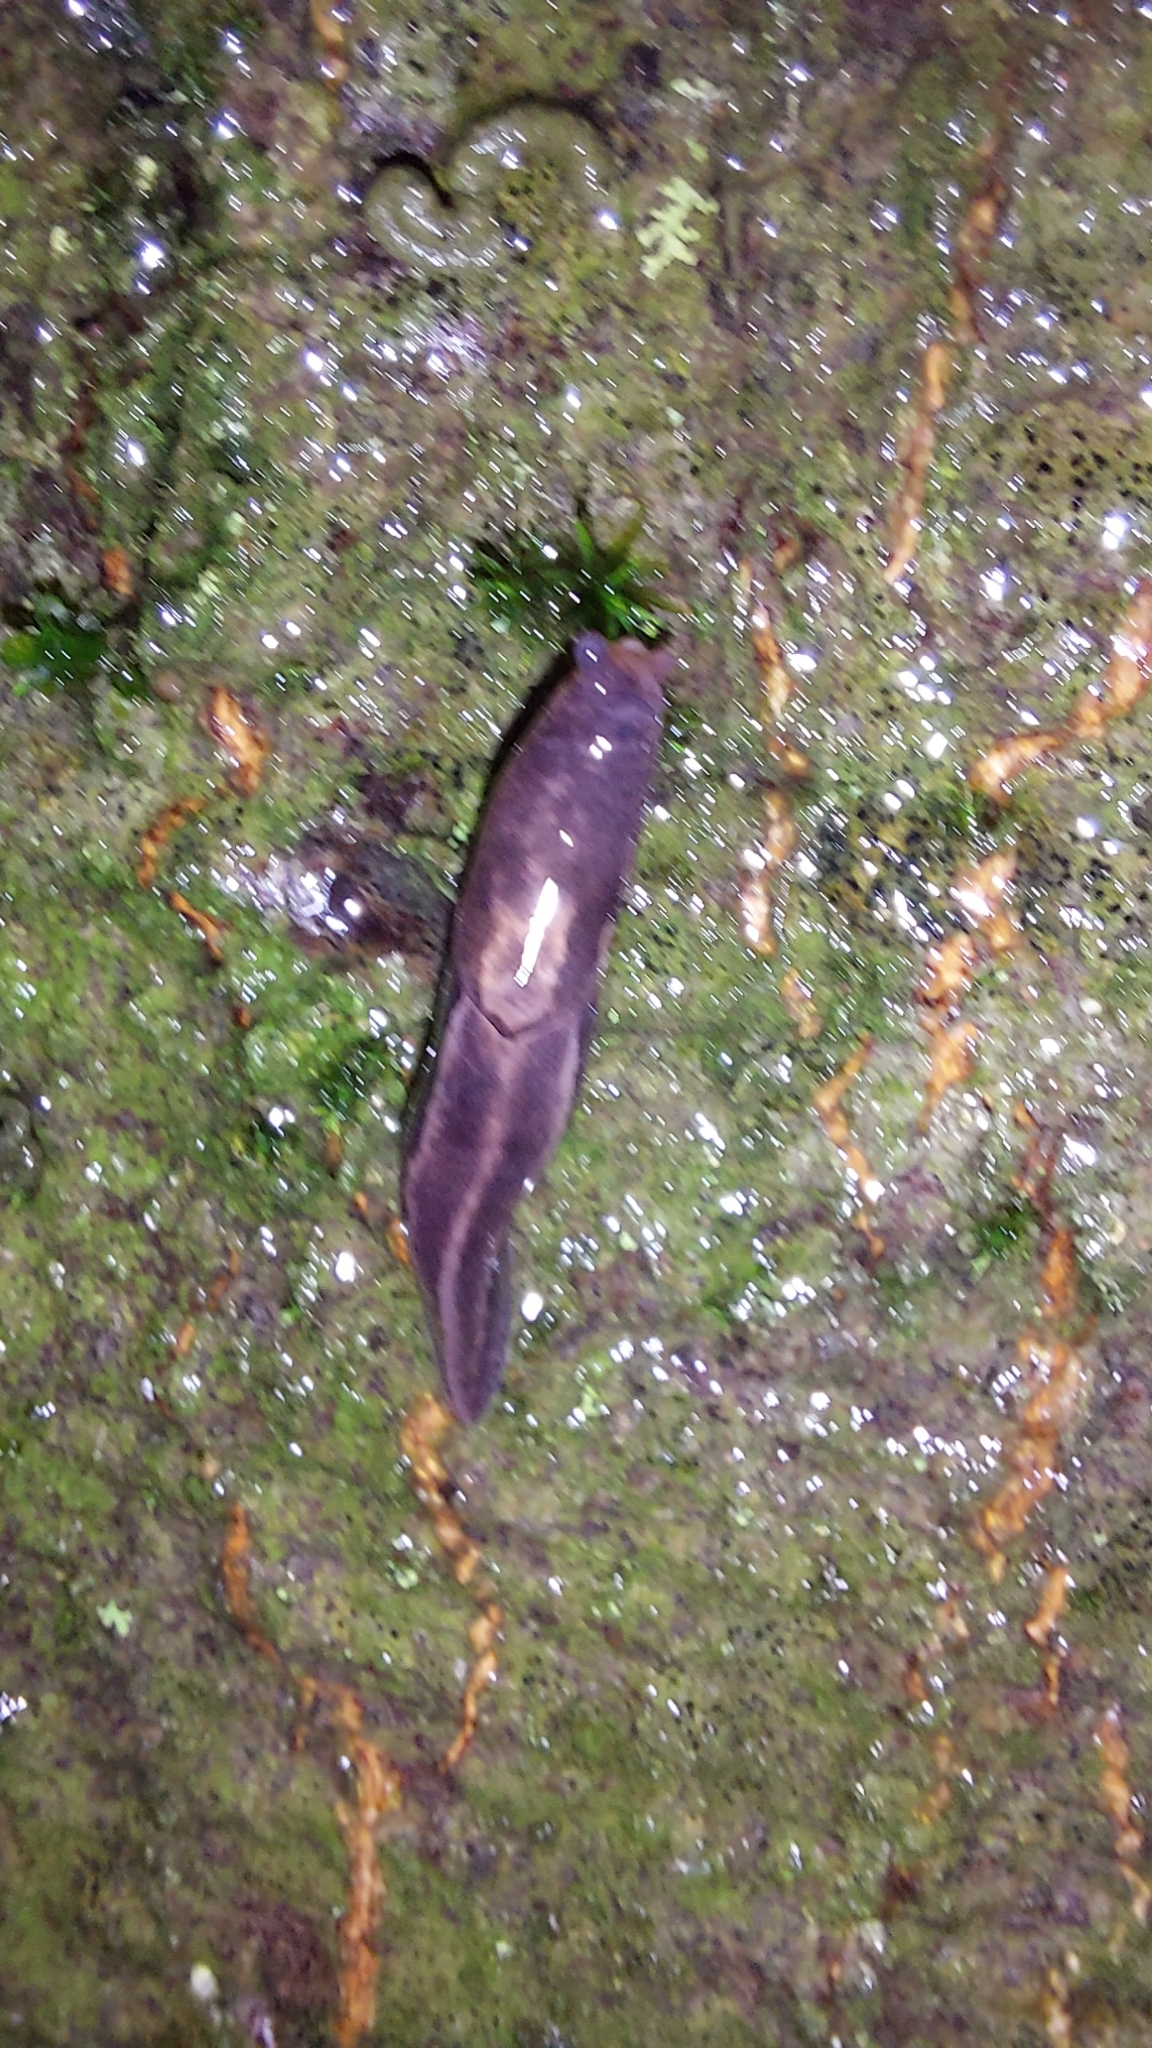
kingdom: Animalia
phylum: Mollusca
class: Gastropoda
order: Stylommatophora
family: Limacidae
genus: Limax
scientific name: Limax maximus
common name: Great grey slug
